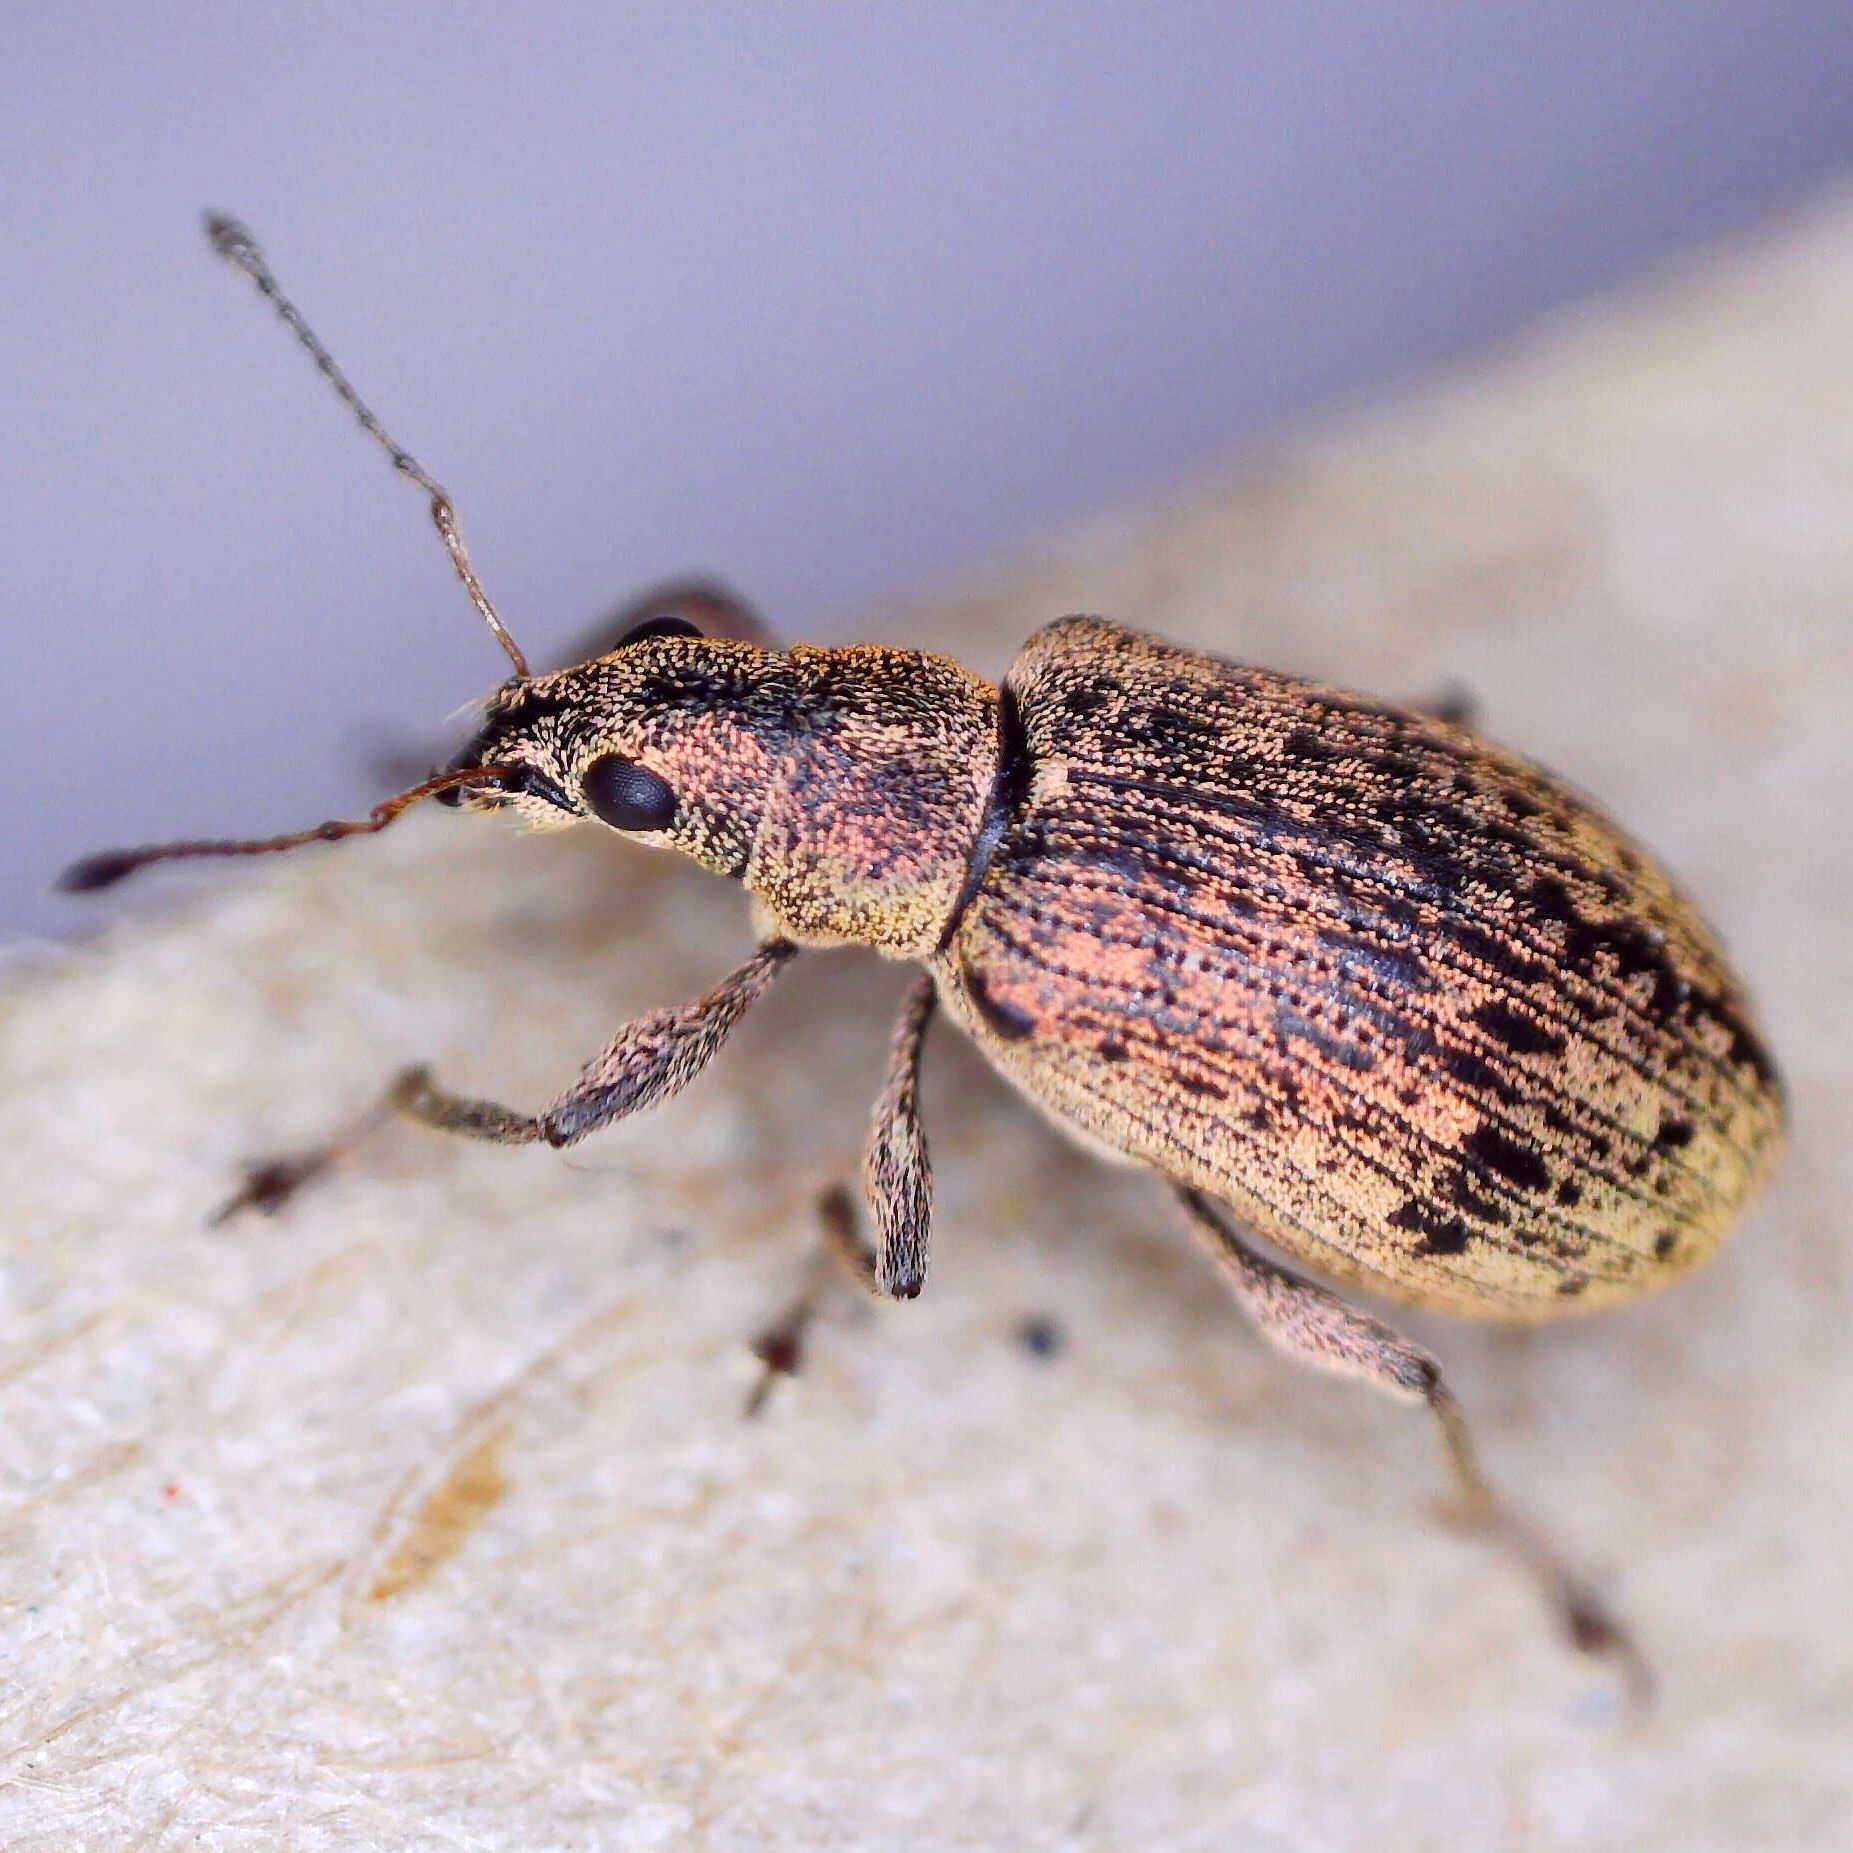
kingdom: Animalia
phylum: Arthropoda
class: Insecta
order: Coleoptera
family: Curculionidae
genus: Polydrusus
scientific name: Polydrusus cervinus
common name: Weevil
